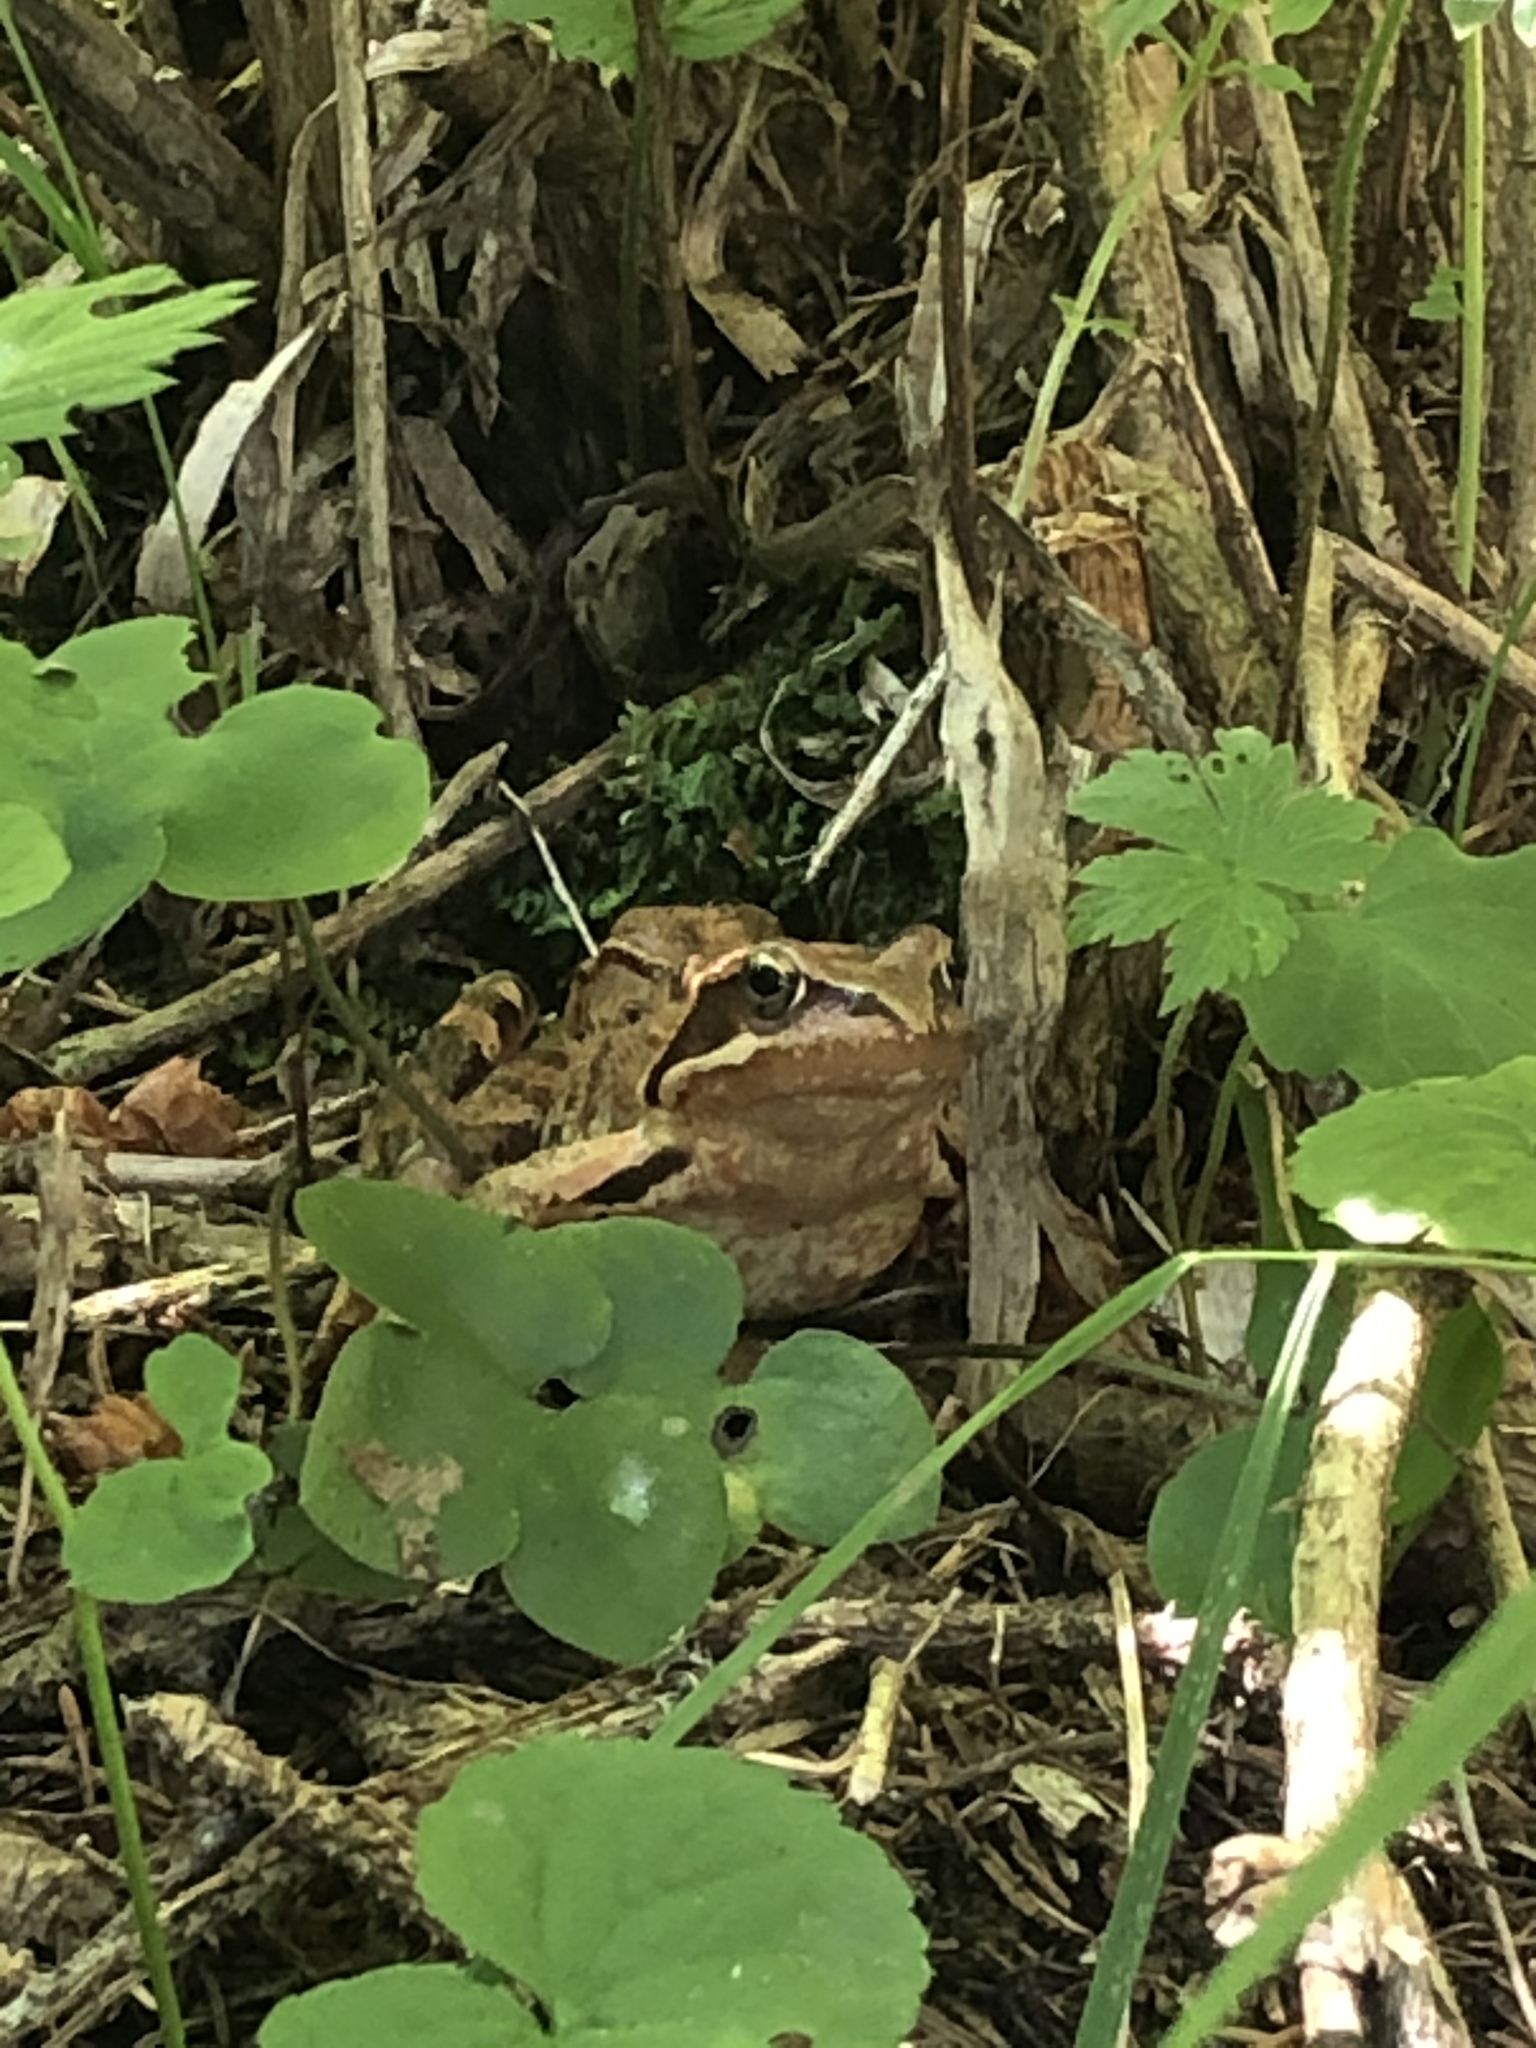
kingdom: Animalia
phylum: Chordata
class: Amphibia
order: Anura
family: Ranidae
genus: Rana
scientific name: Rana temporaria
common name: Common frog
